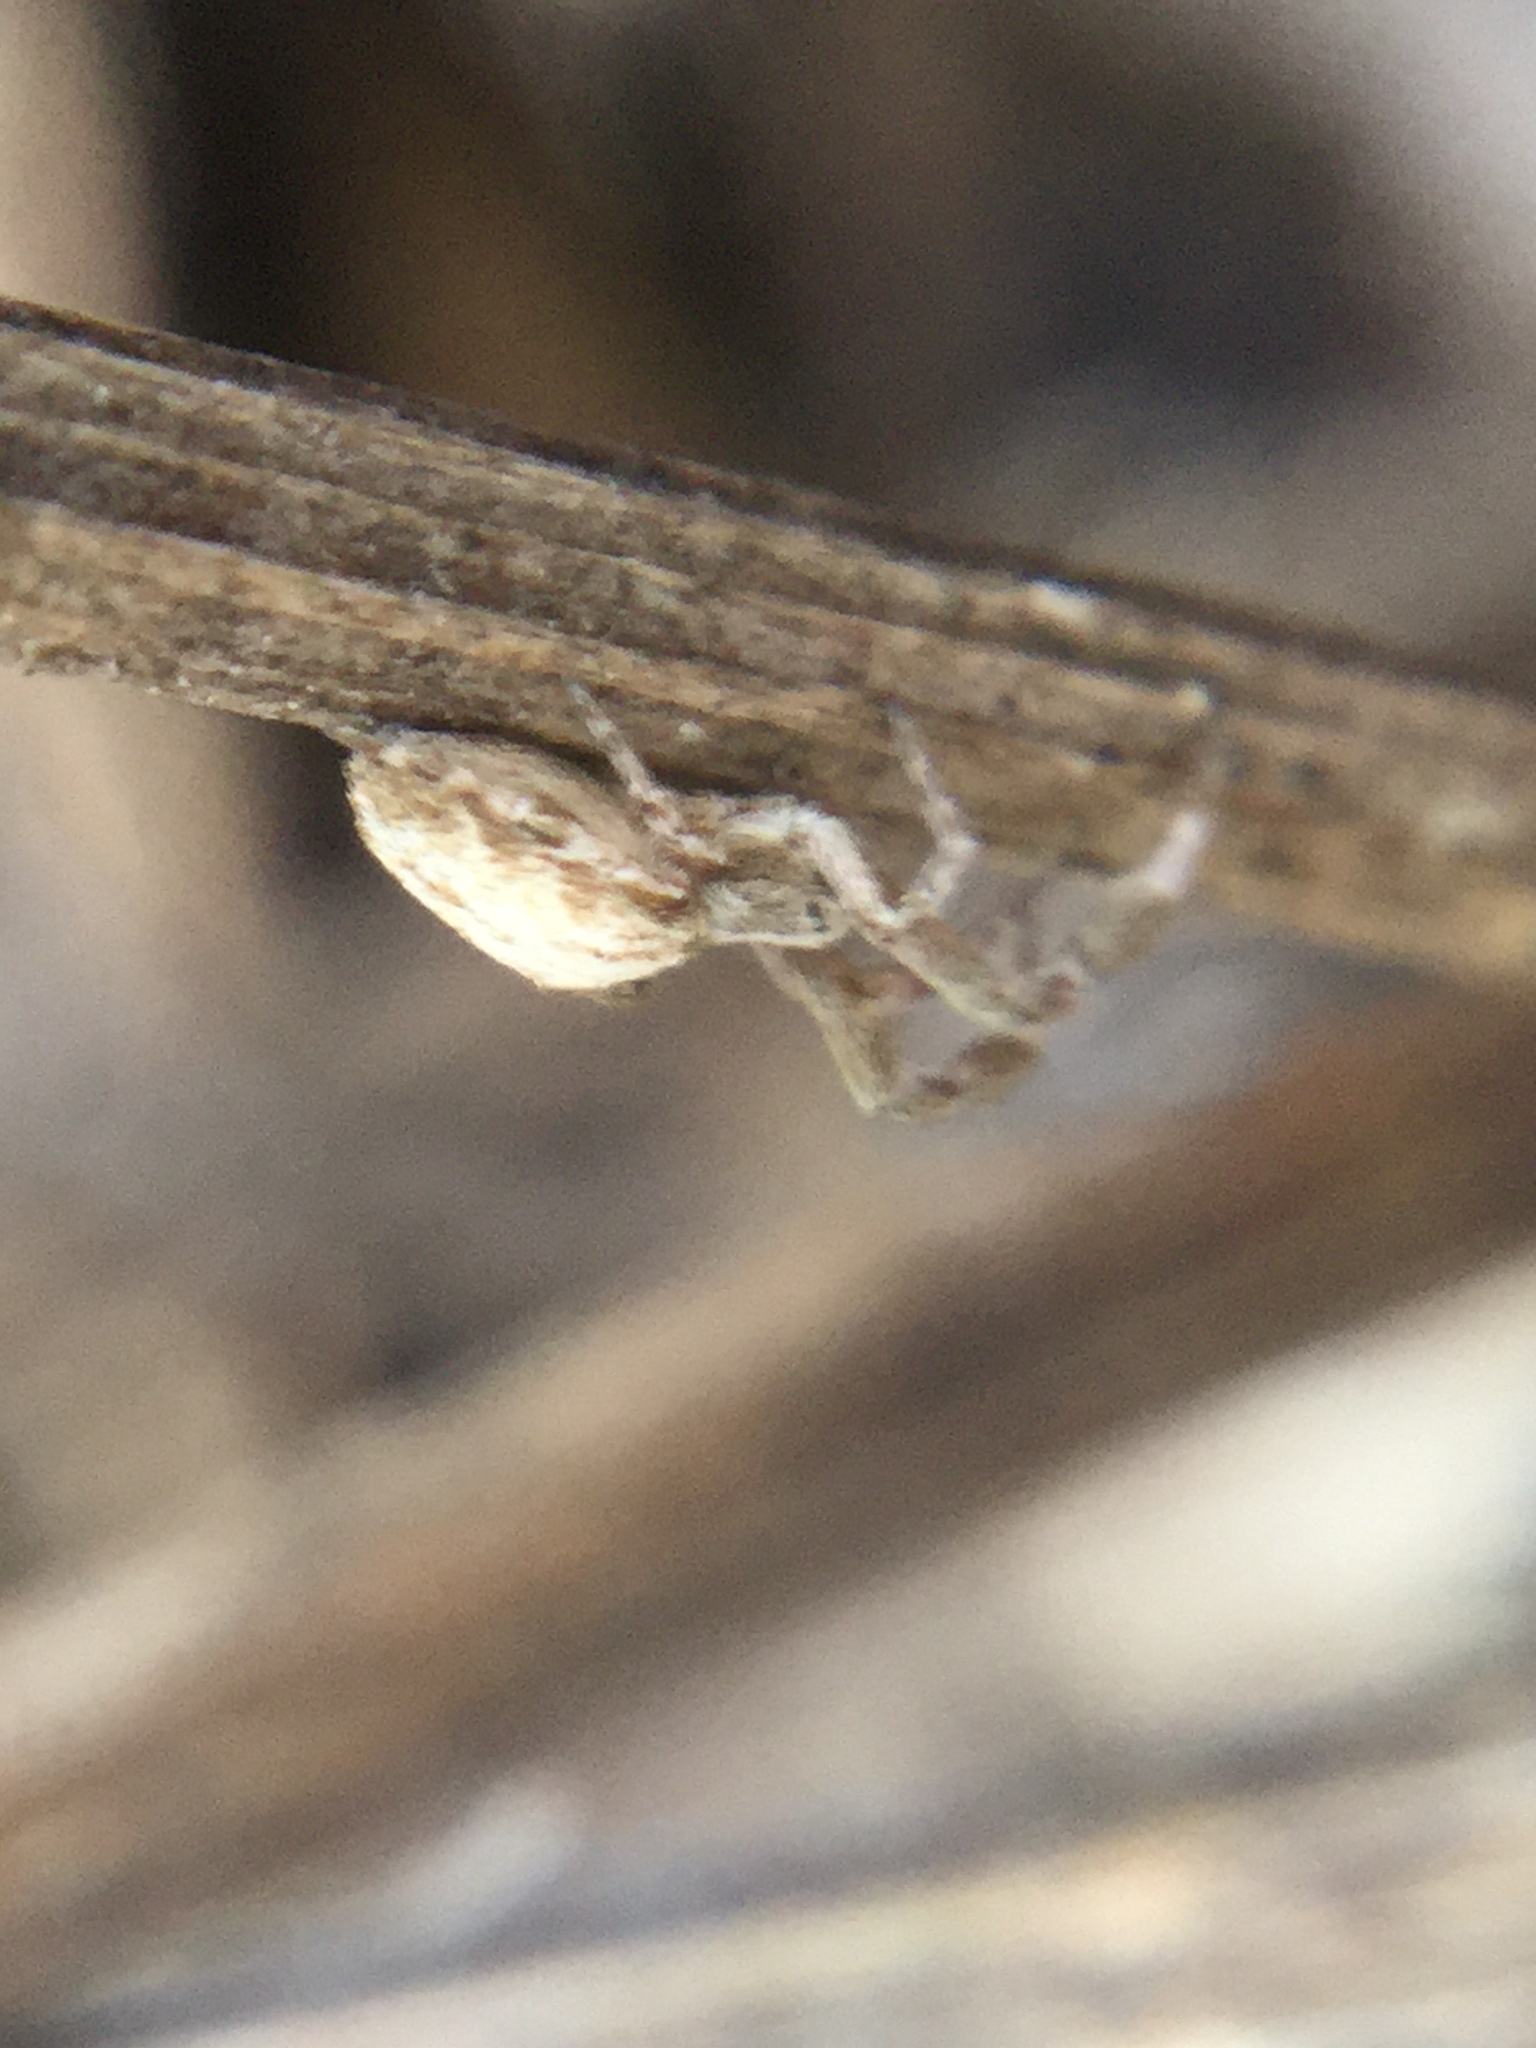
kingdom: Animalia
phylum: Arthropoda
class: Arachnida
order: Araneae
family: Uloboridae
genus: Uloborus
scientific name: Uloborus glomosus
